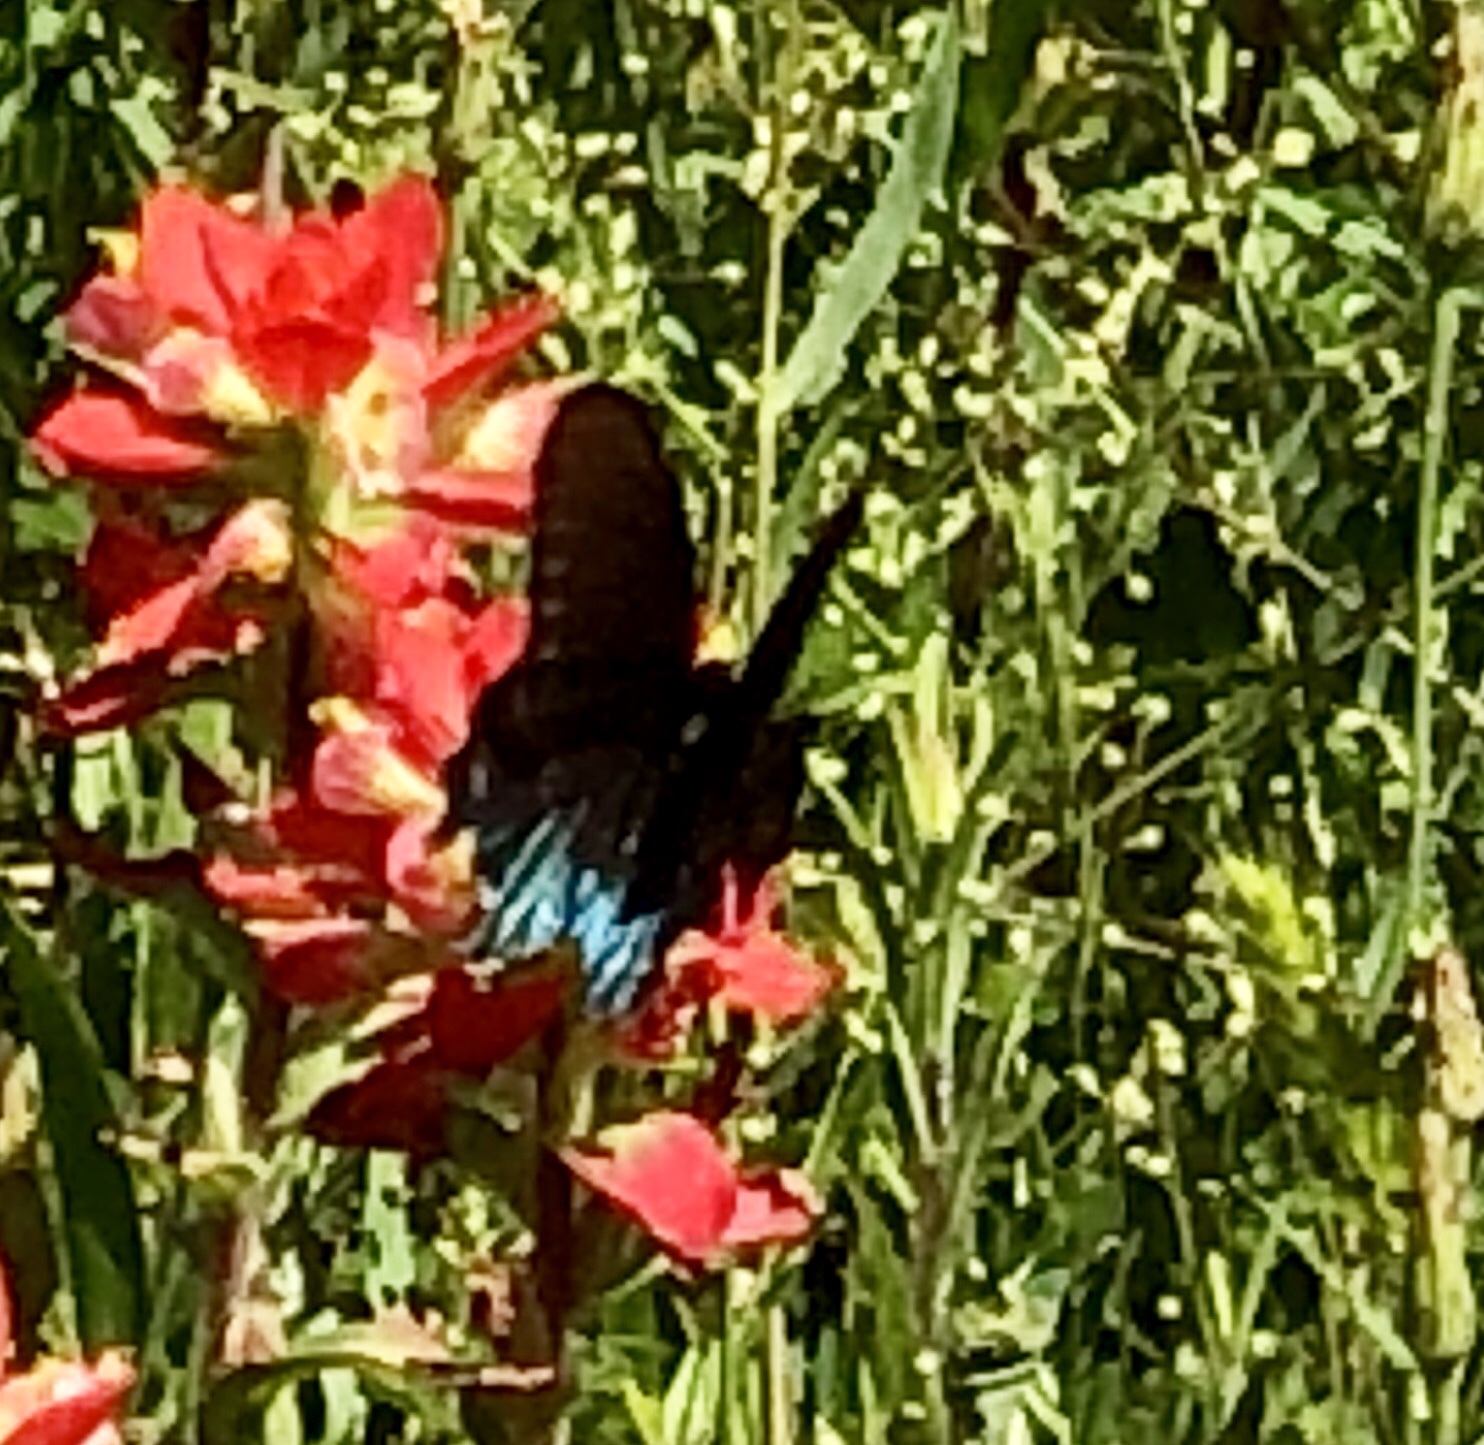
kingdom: Animalia
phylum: Arthropoda
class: Insecta
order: Lepidoptera
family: Papilionidae
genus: Battus
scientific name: Battus philenor
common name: Pipevine swallowtail
